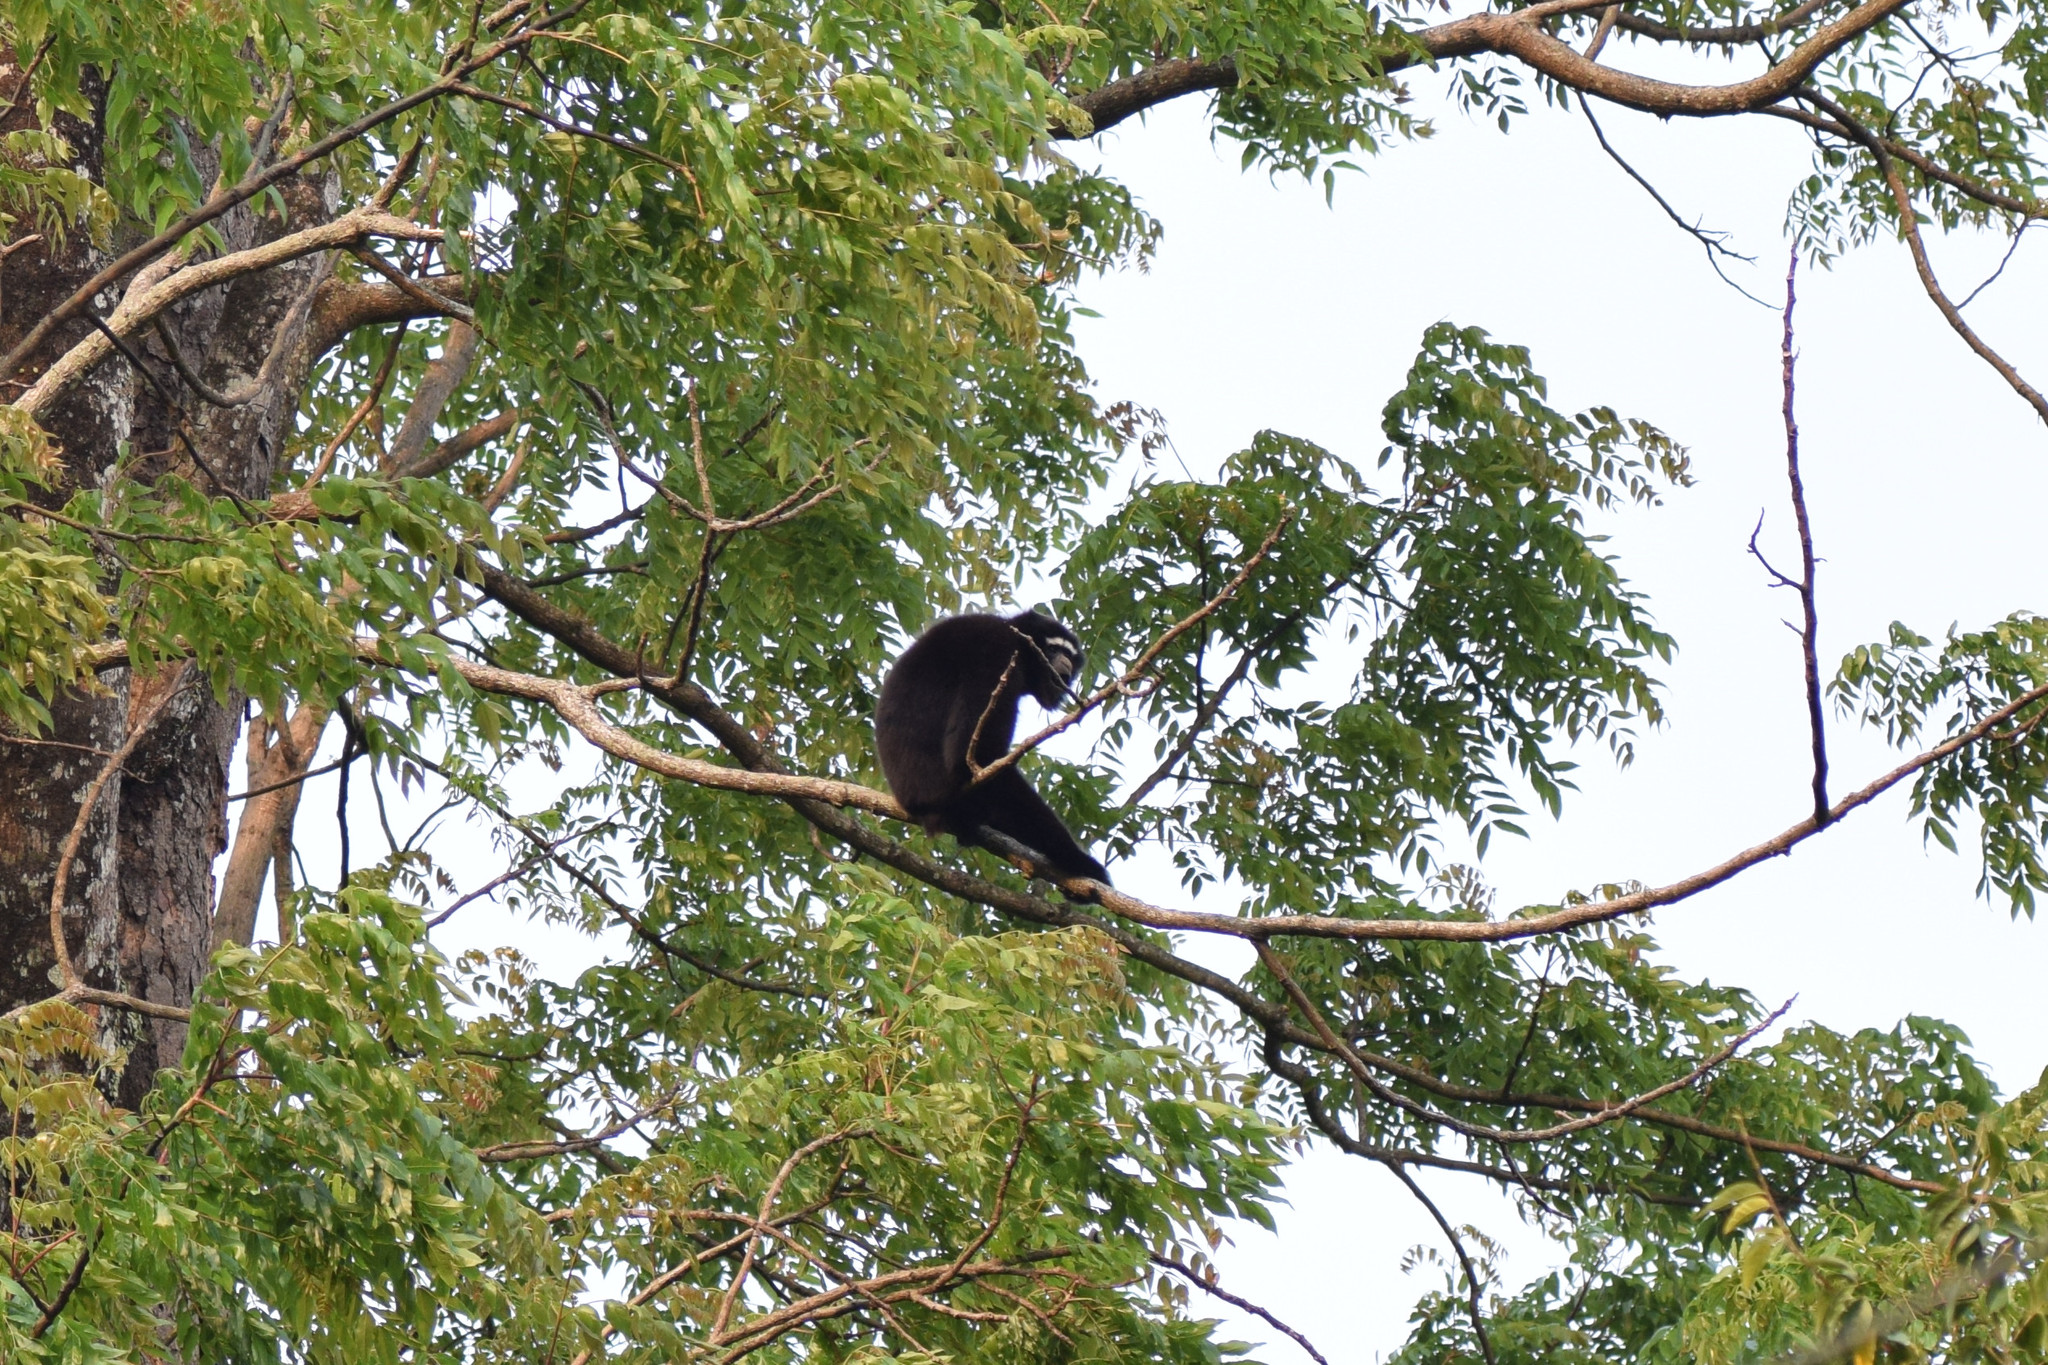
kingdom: Animalia
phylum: Chordata
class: Mammalia
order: Primates
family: Hylobatidae
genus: Hoolock
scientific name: Hoolock
